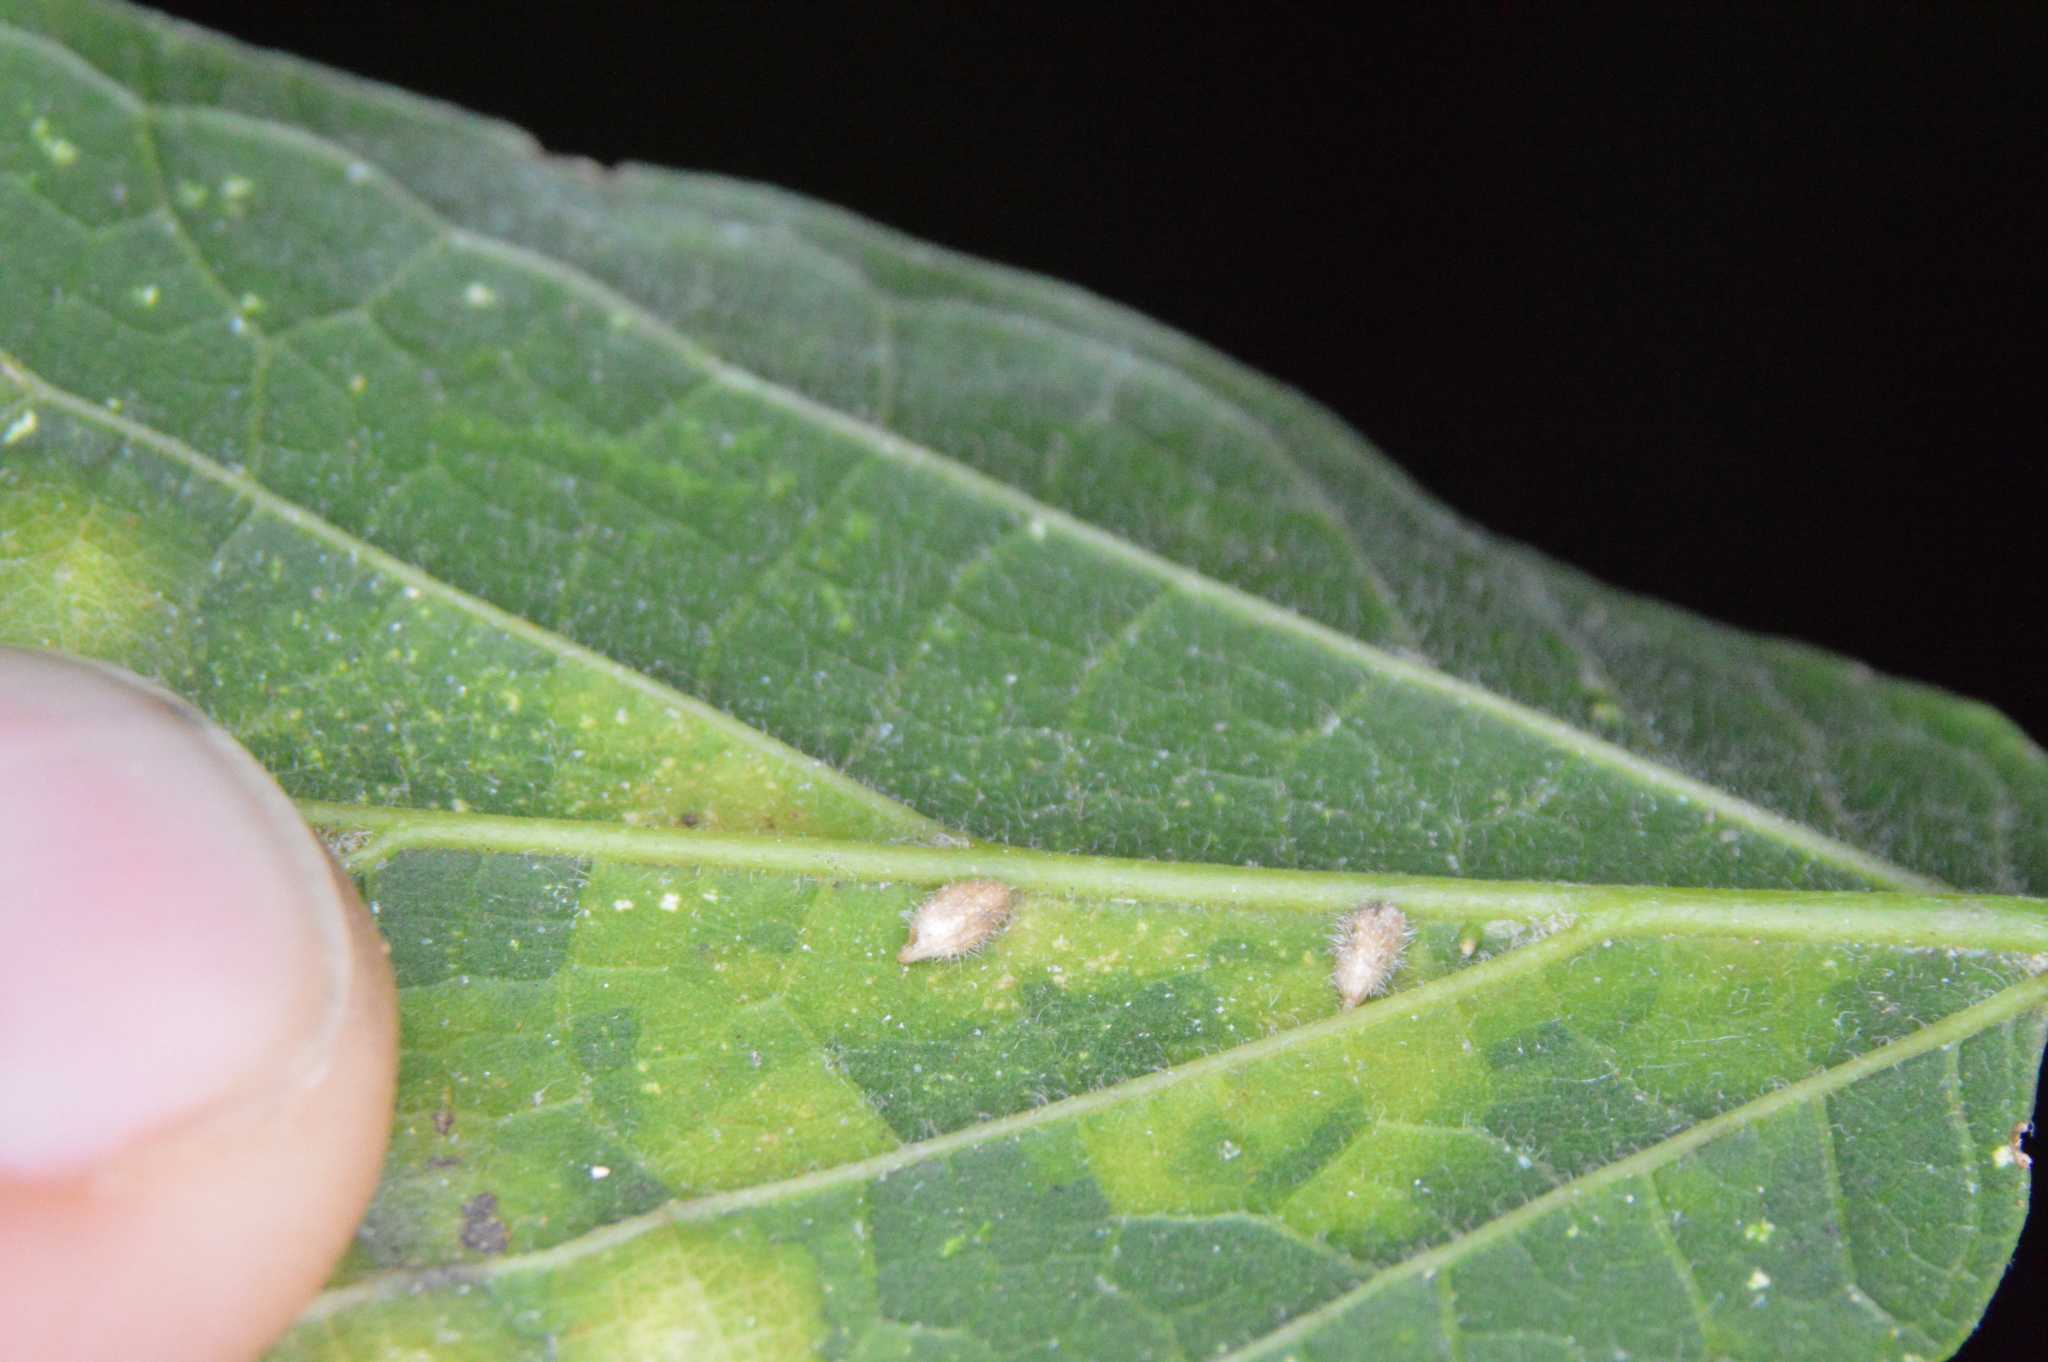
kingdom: Animalia
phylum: Arthropoda
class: Insecta
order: Diptera
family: Cecidomyiidae
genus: Celticecis
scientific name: Celticecis supina
